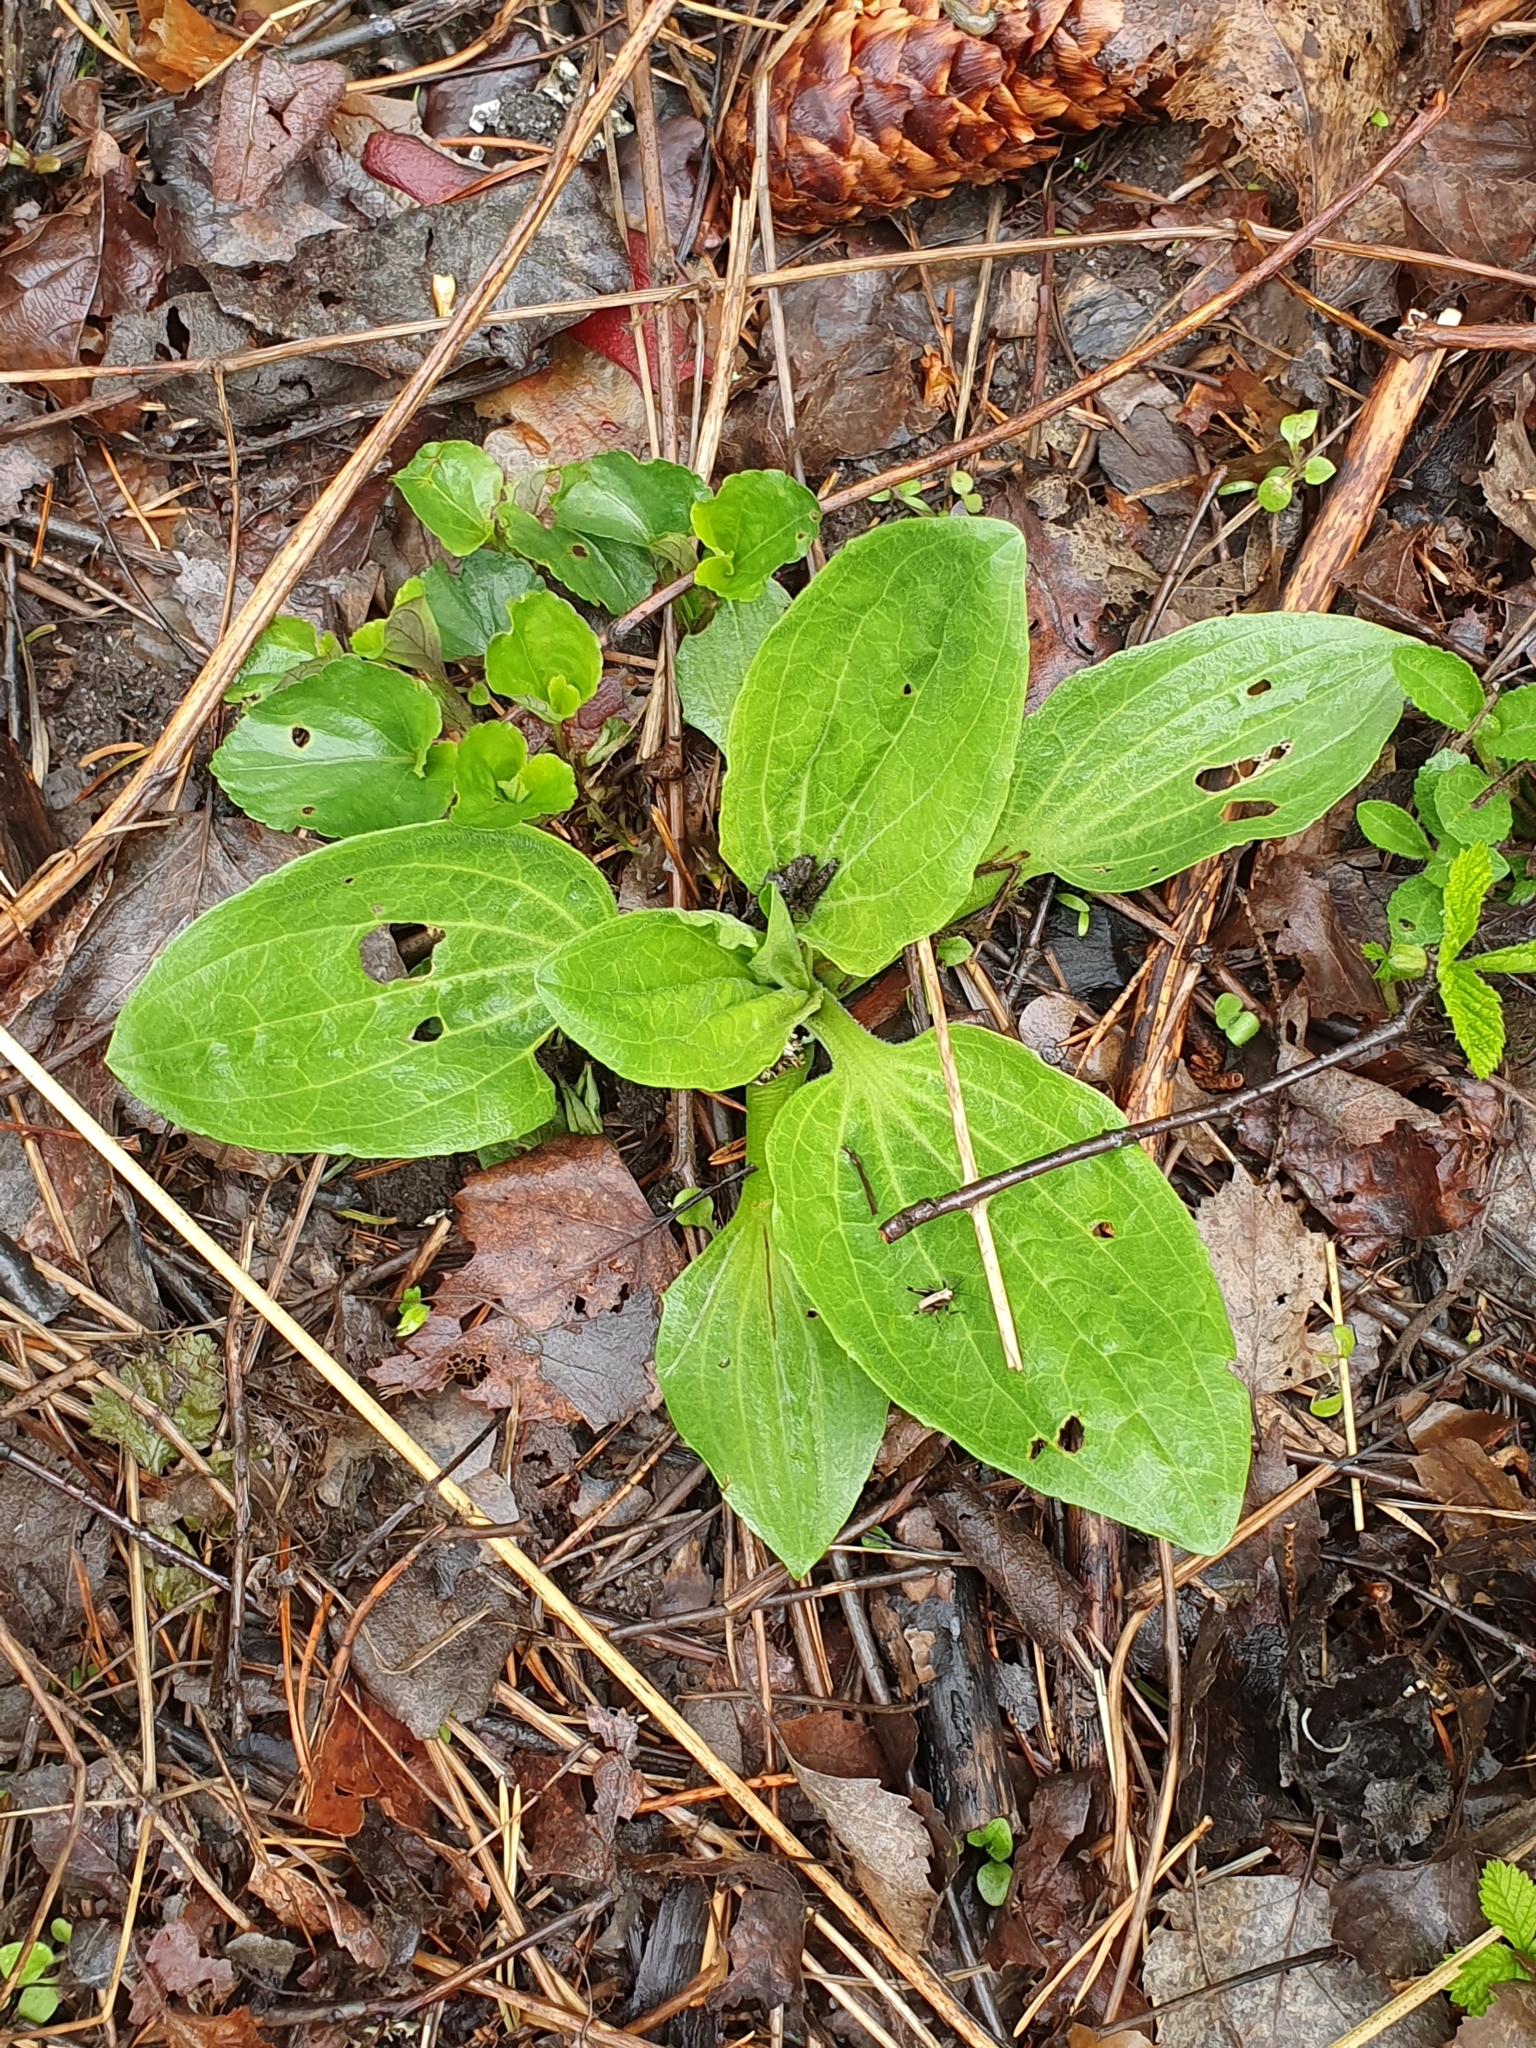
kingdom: Plantae
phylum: Tracheophyta
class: Magnoliopsida
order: Lamiales
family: Plantaginaceae
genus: Plantago
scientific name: Plantago major
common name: Common plantain
